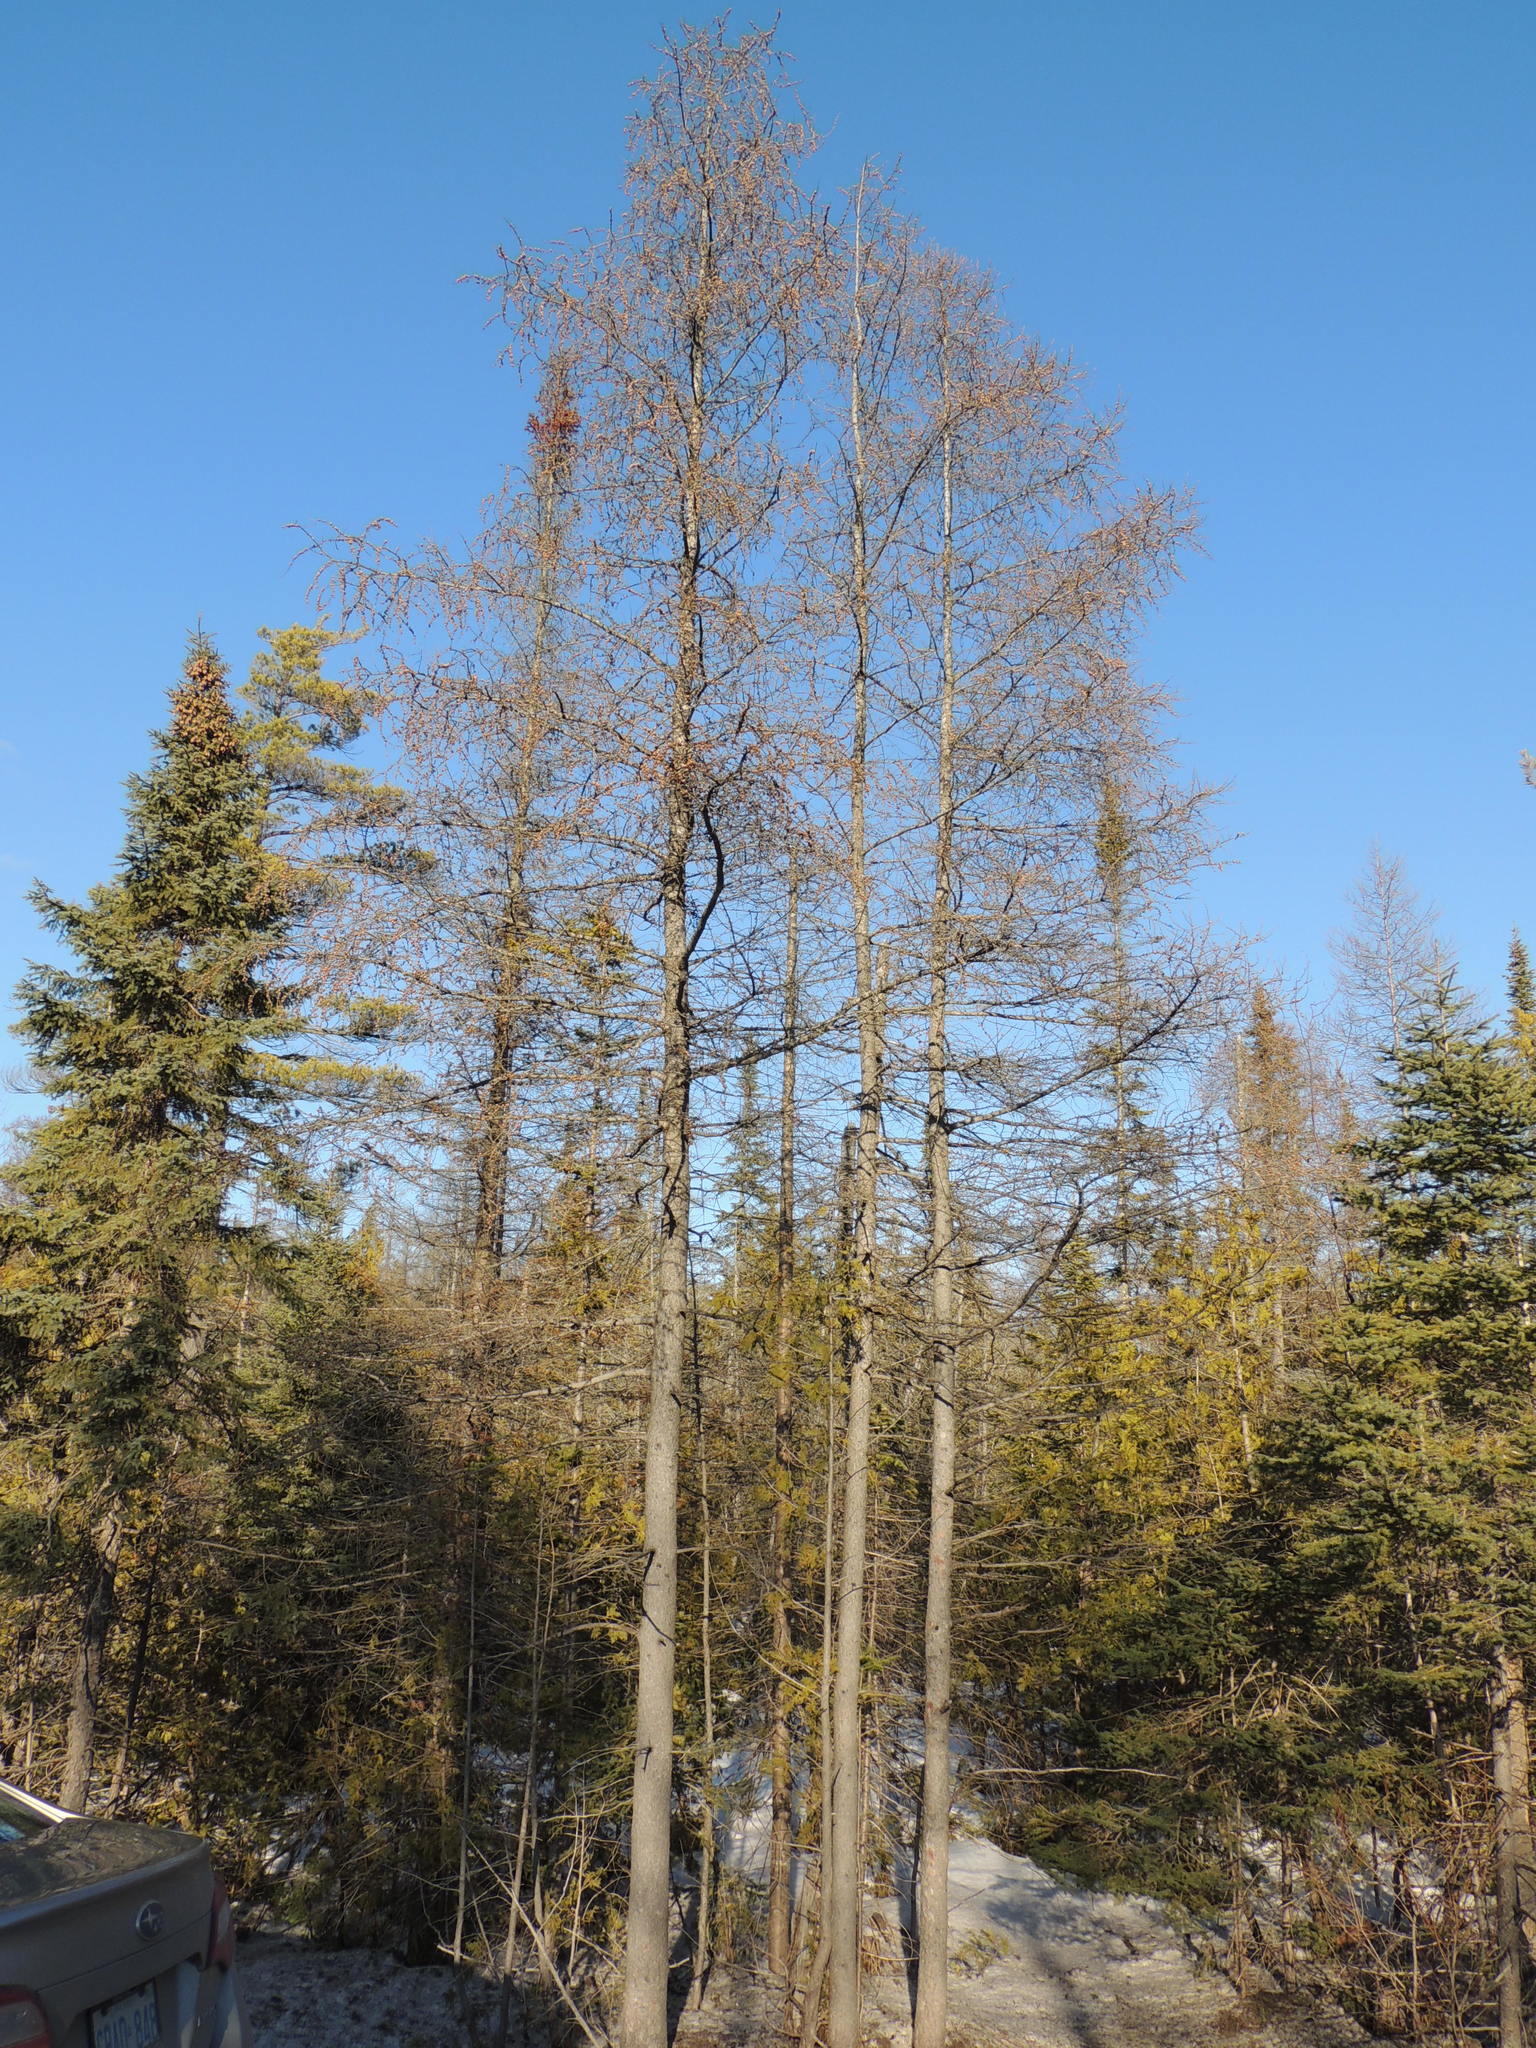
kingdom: Plantae
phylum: Tracheophyta
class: Pinopsida
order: Pinales
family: Pinaceae
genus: Larix
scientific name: Larix laricina
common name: American larch
